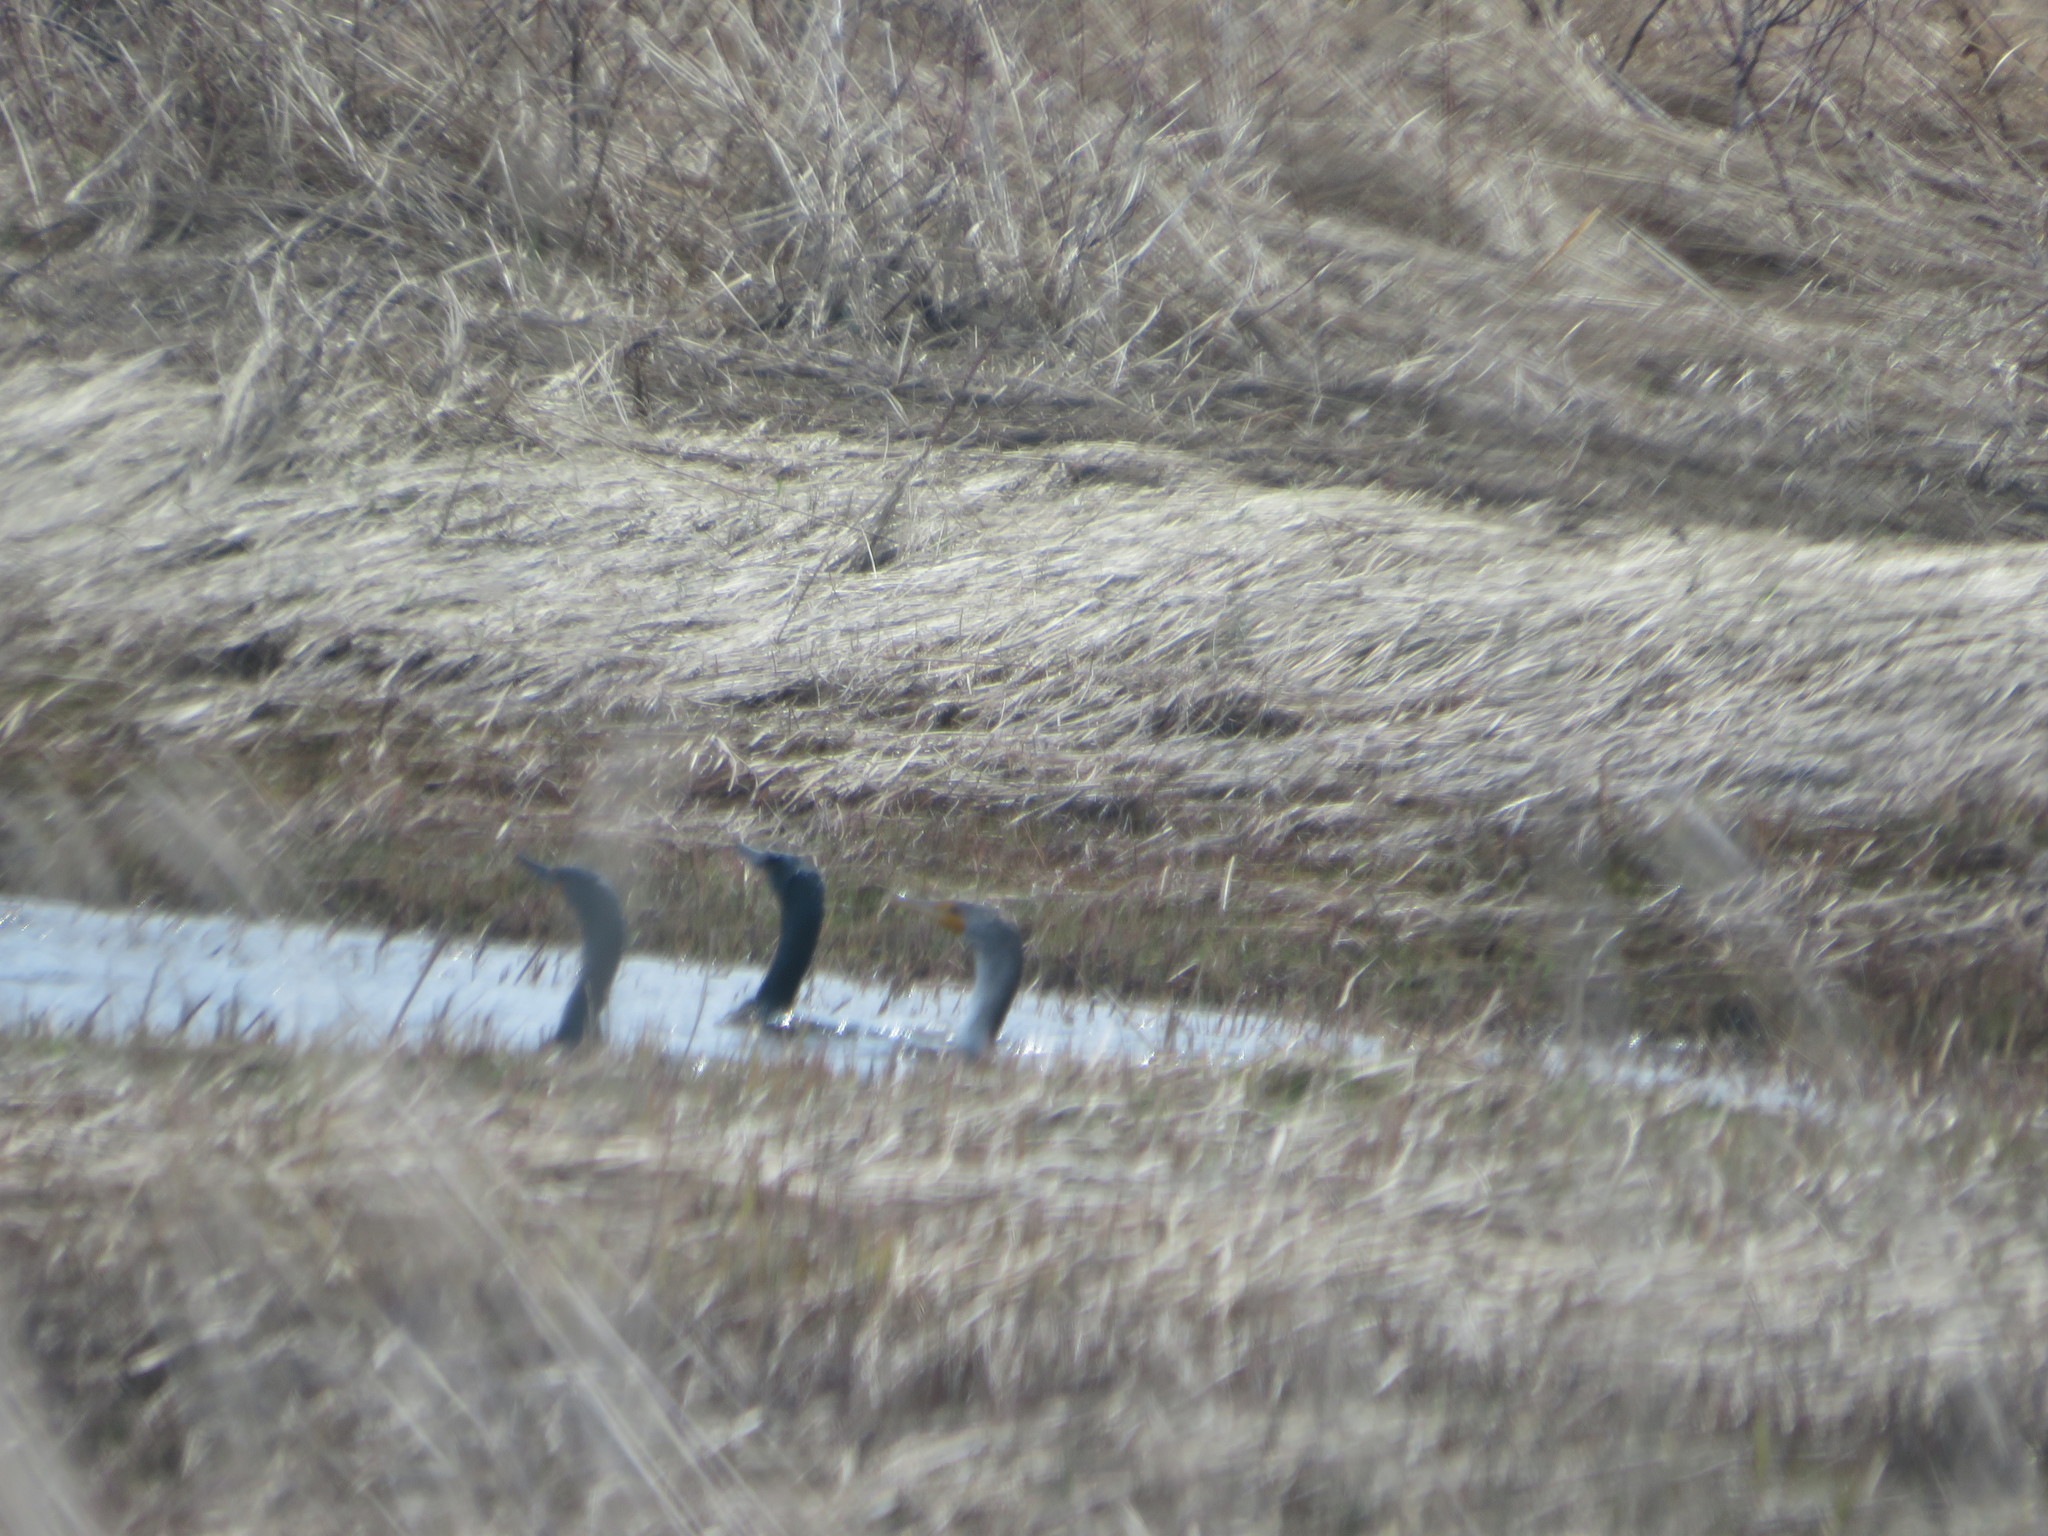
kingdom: Animalia
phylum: Chordata
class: Aves
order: Suliformes
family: Phalacrocoracidae
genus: Phalacrocorax
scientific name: Phalacrocorax auritus
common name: Double-crested cormorant
